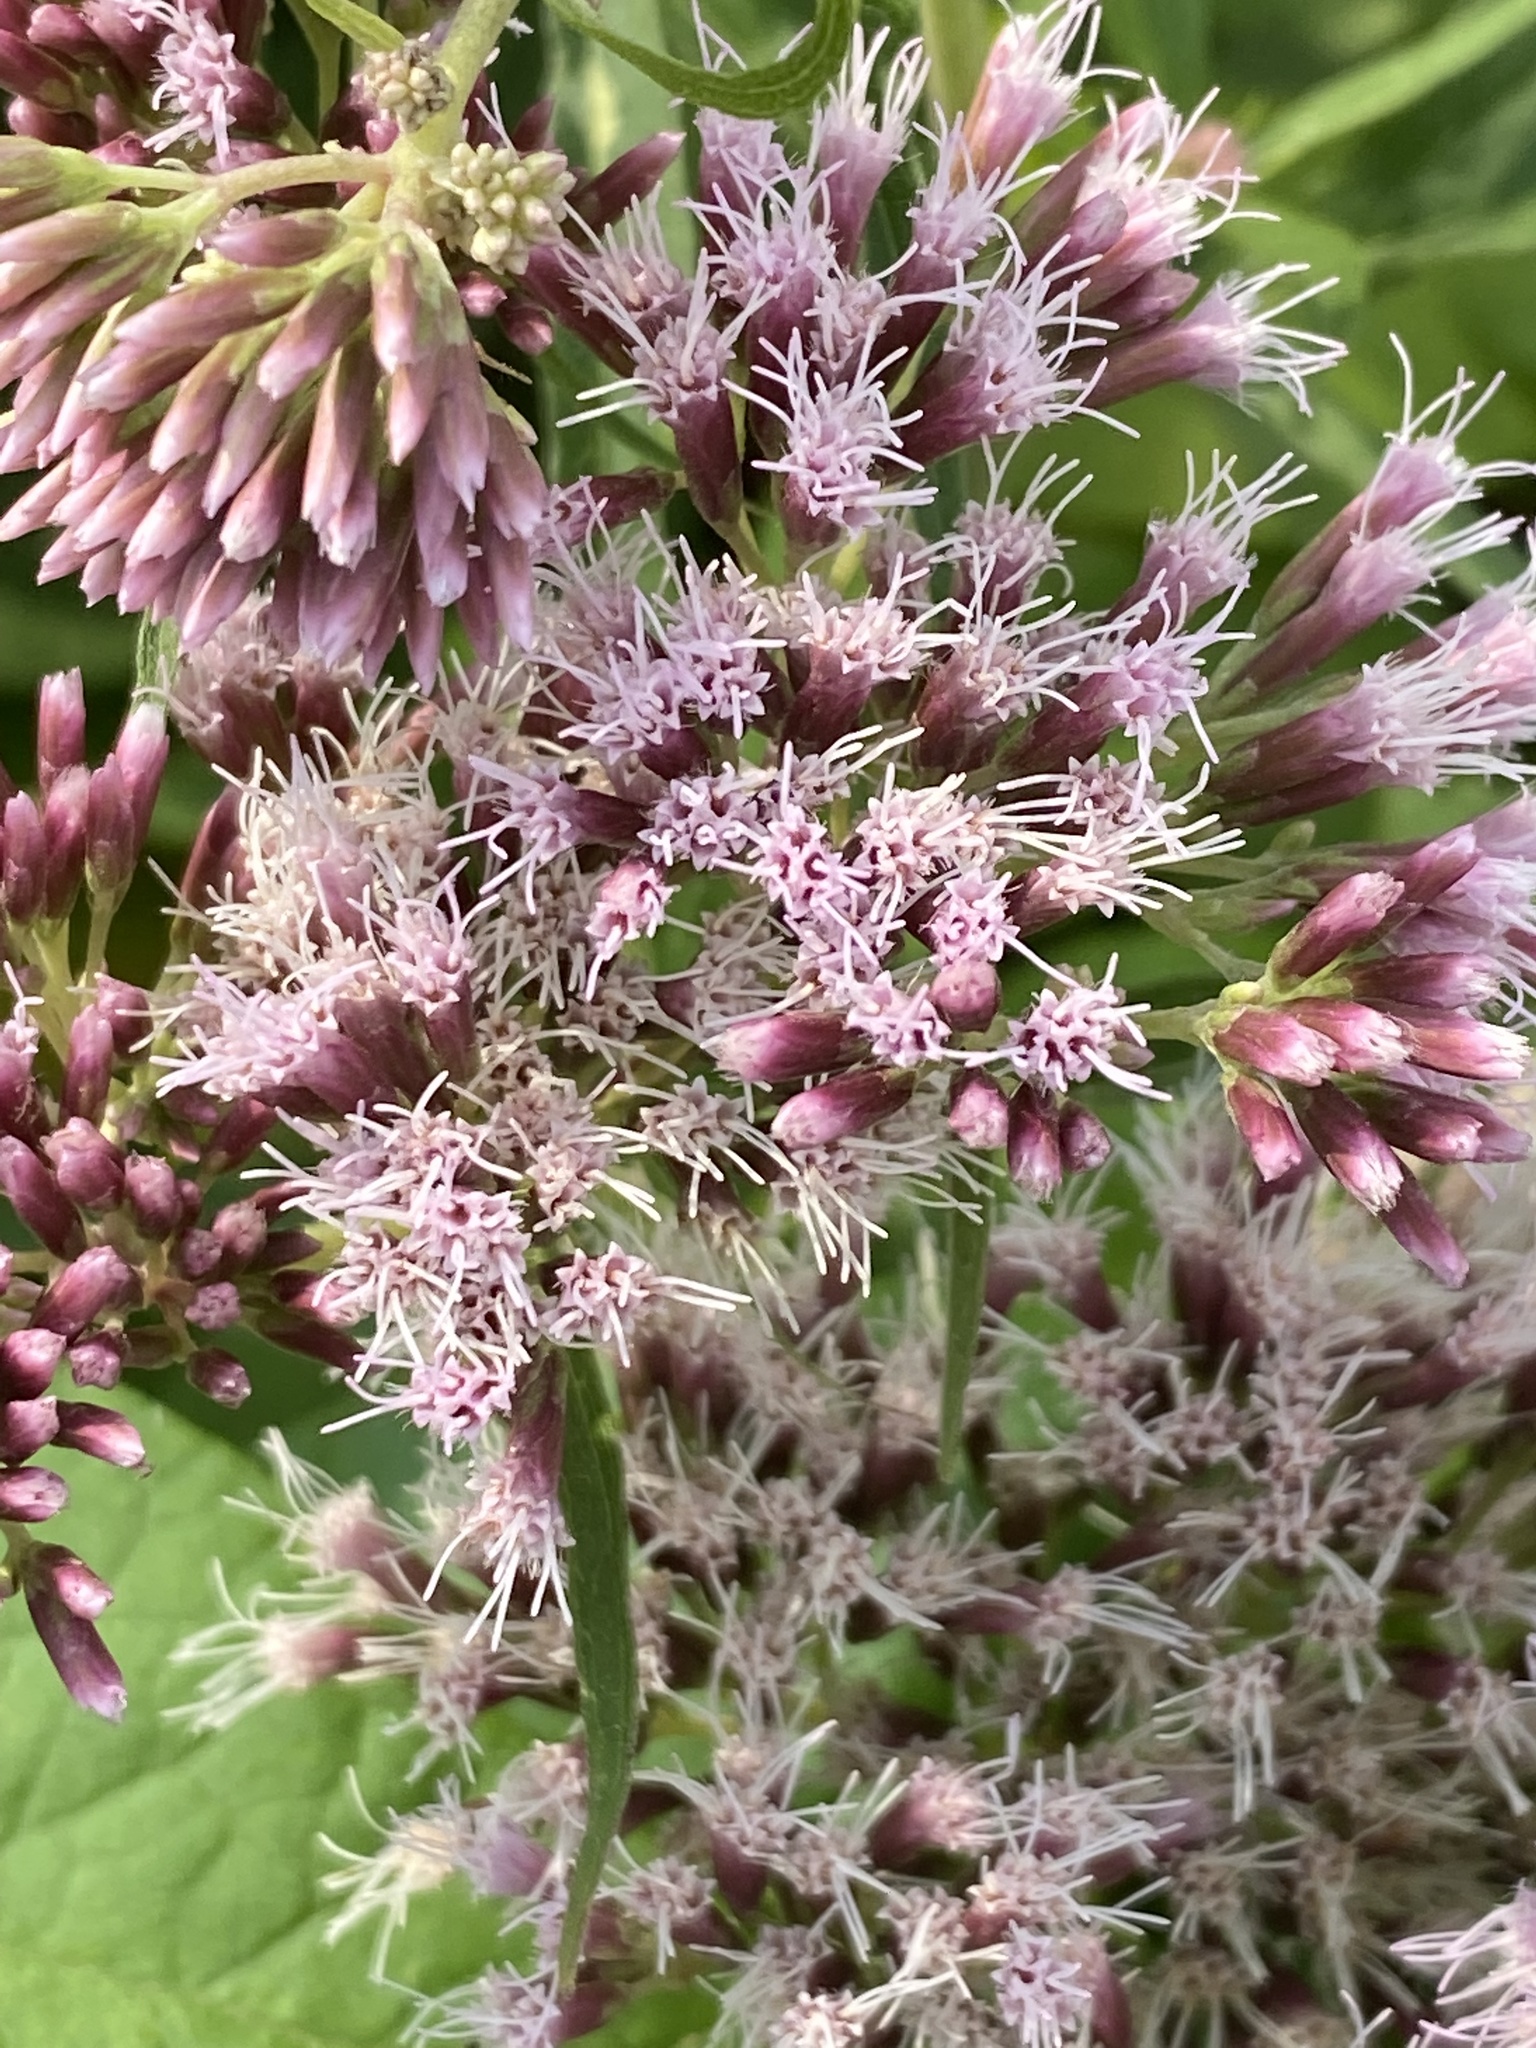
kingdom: Plantae
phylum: Tracheophyta
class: Magnoliopsida
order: Asterales
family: Asteraceae
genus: Eupatorium
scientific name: Eupatorium cannabinum
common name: Hemp-agrimony
